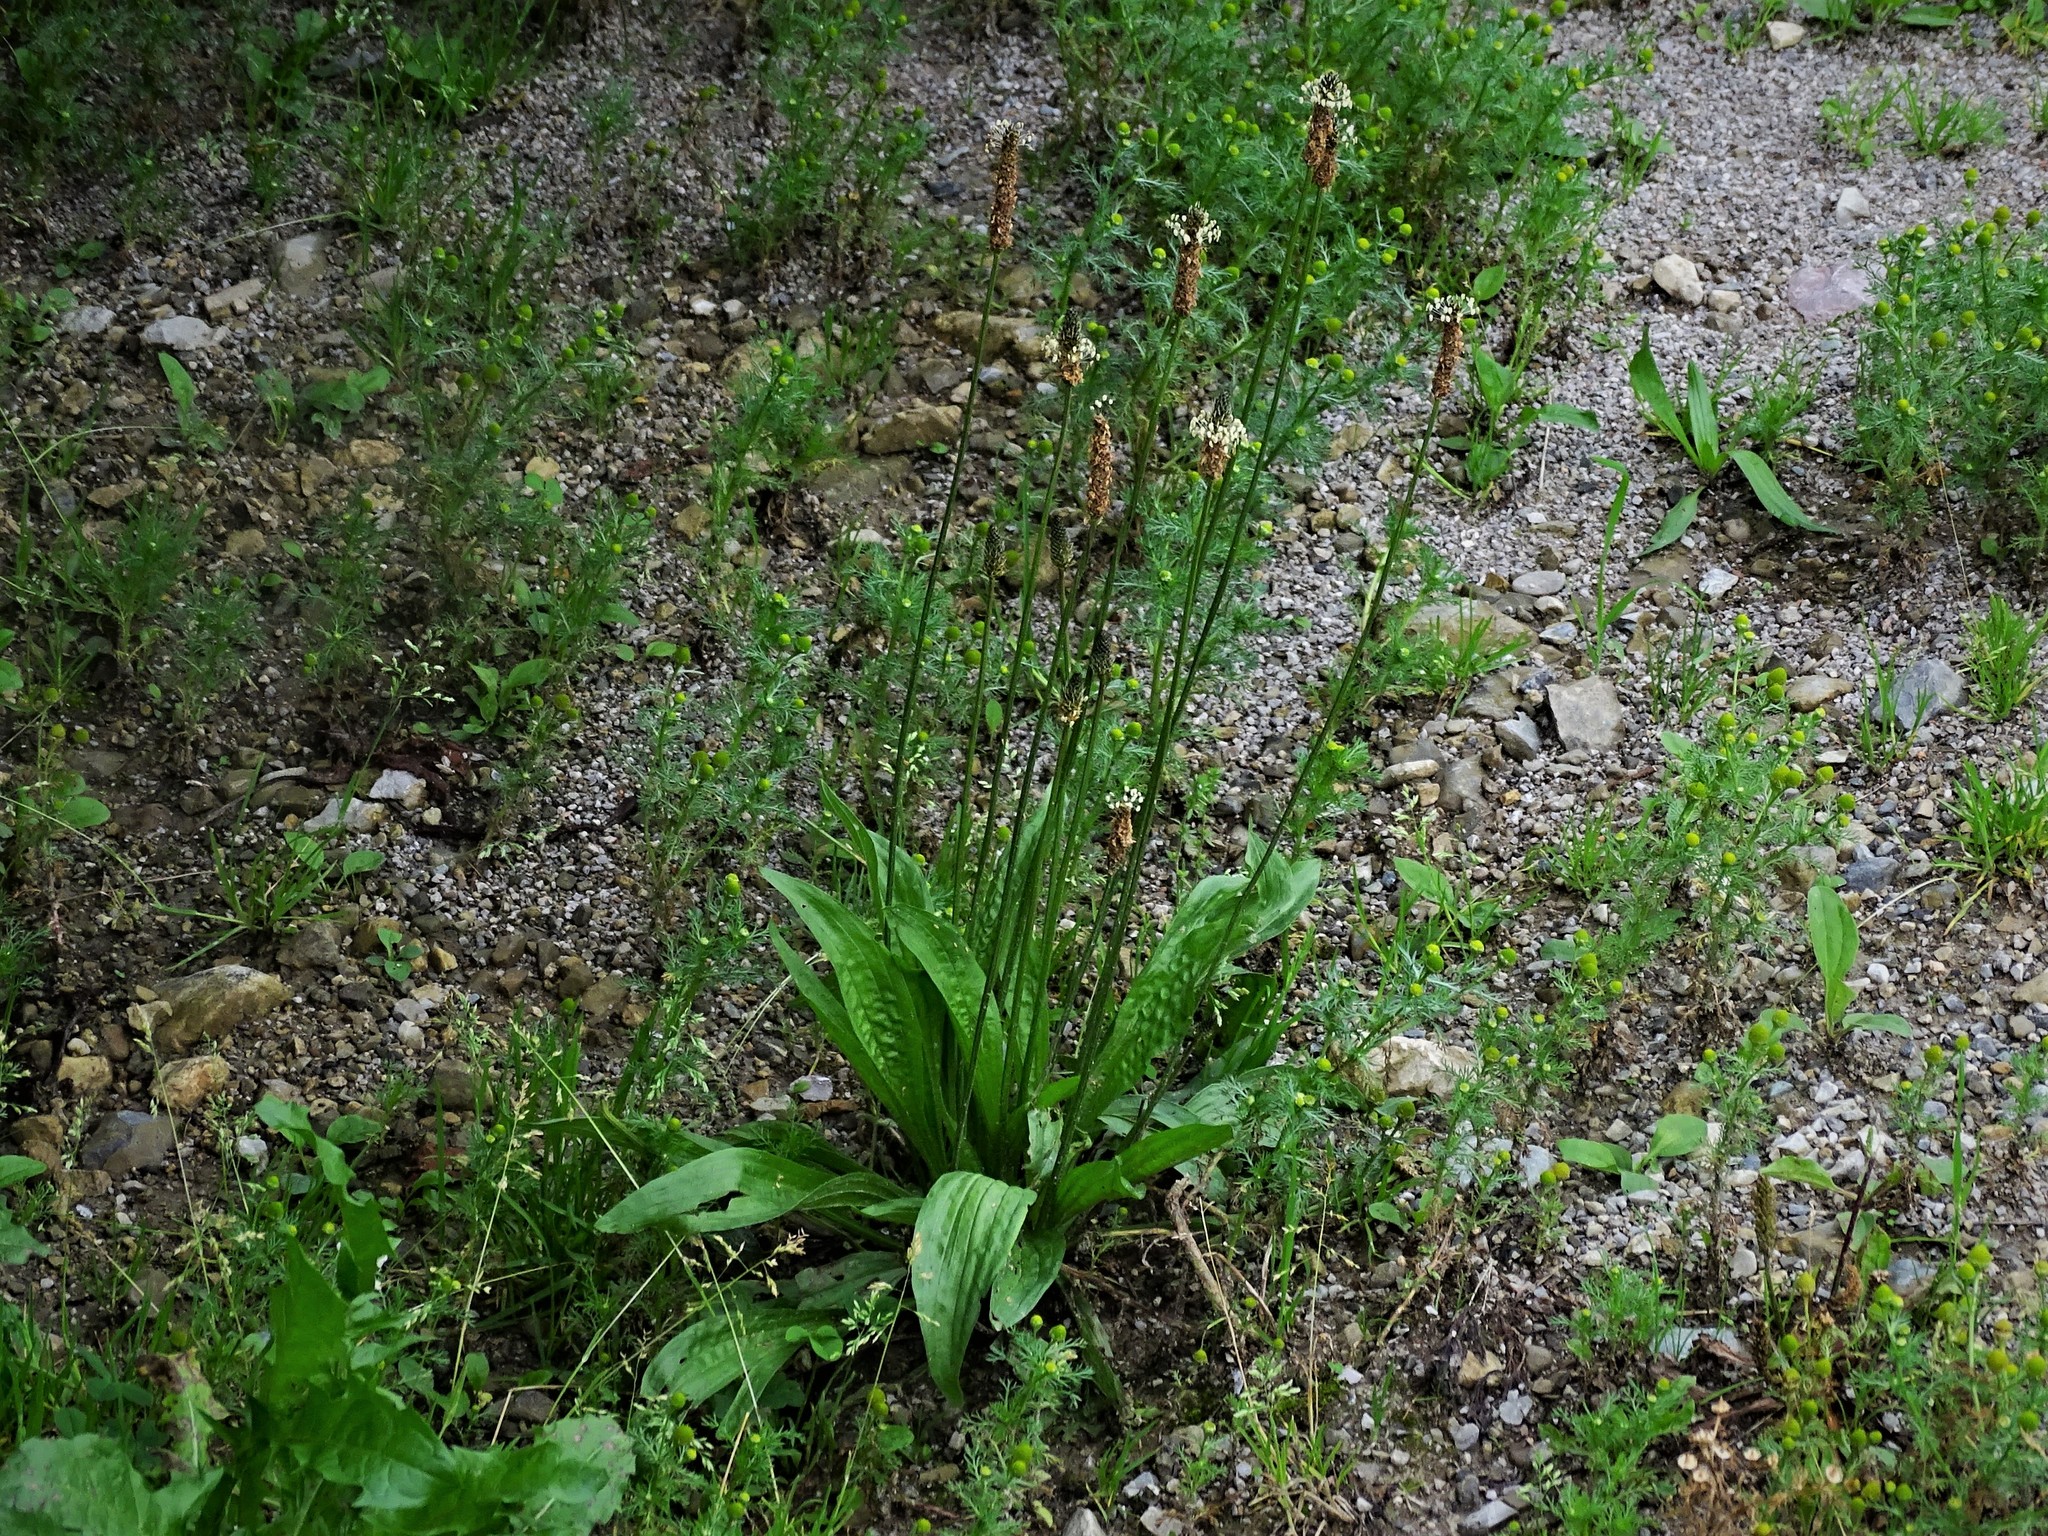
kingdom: Plantae
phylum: Tracheophyta
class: Magnoliopsida
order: Lamiales
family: Plantaginaceae
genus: Plantago
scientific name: Plantago lanceolata
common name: Ribwort plantain
